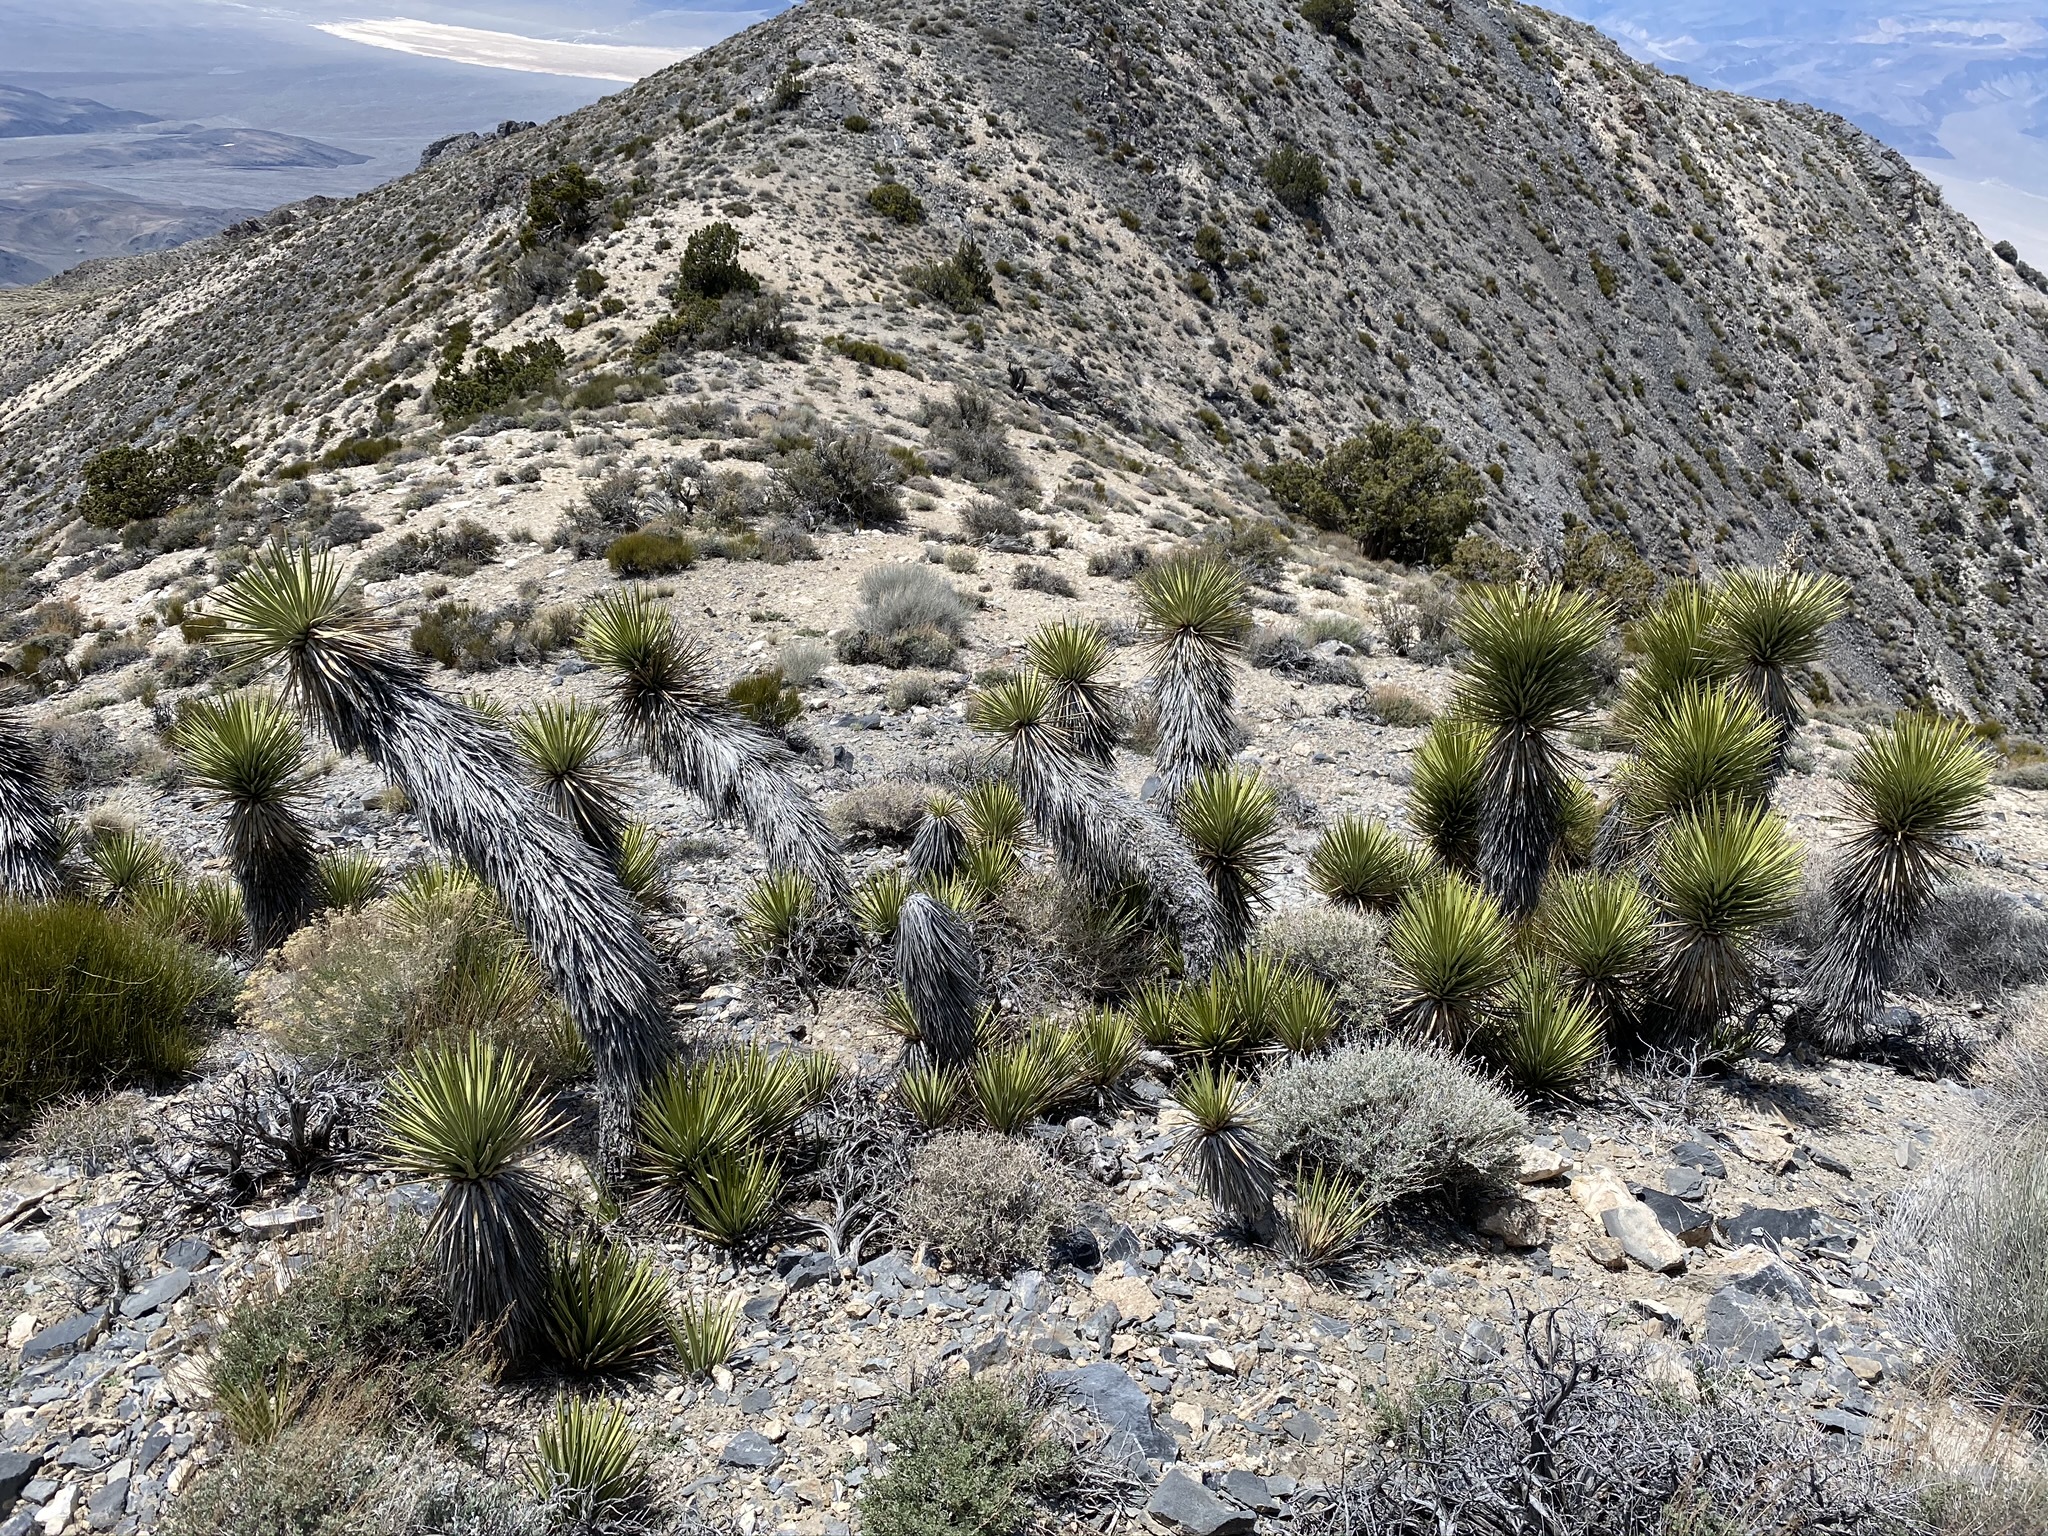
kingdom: Plantae
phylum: Tracheophyta
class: Liliopsida
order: Asparagales
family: Asparagaceae
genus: Yucca
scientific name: Yucca brevifolia
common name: Joshua tree
